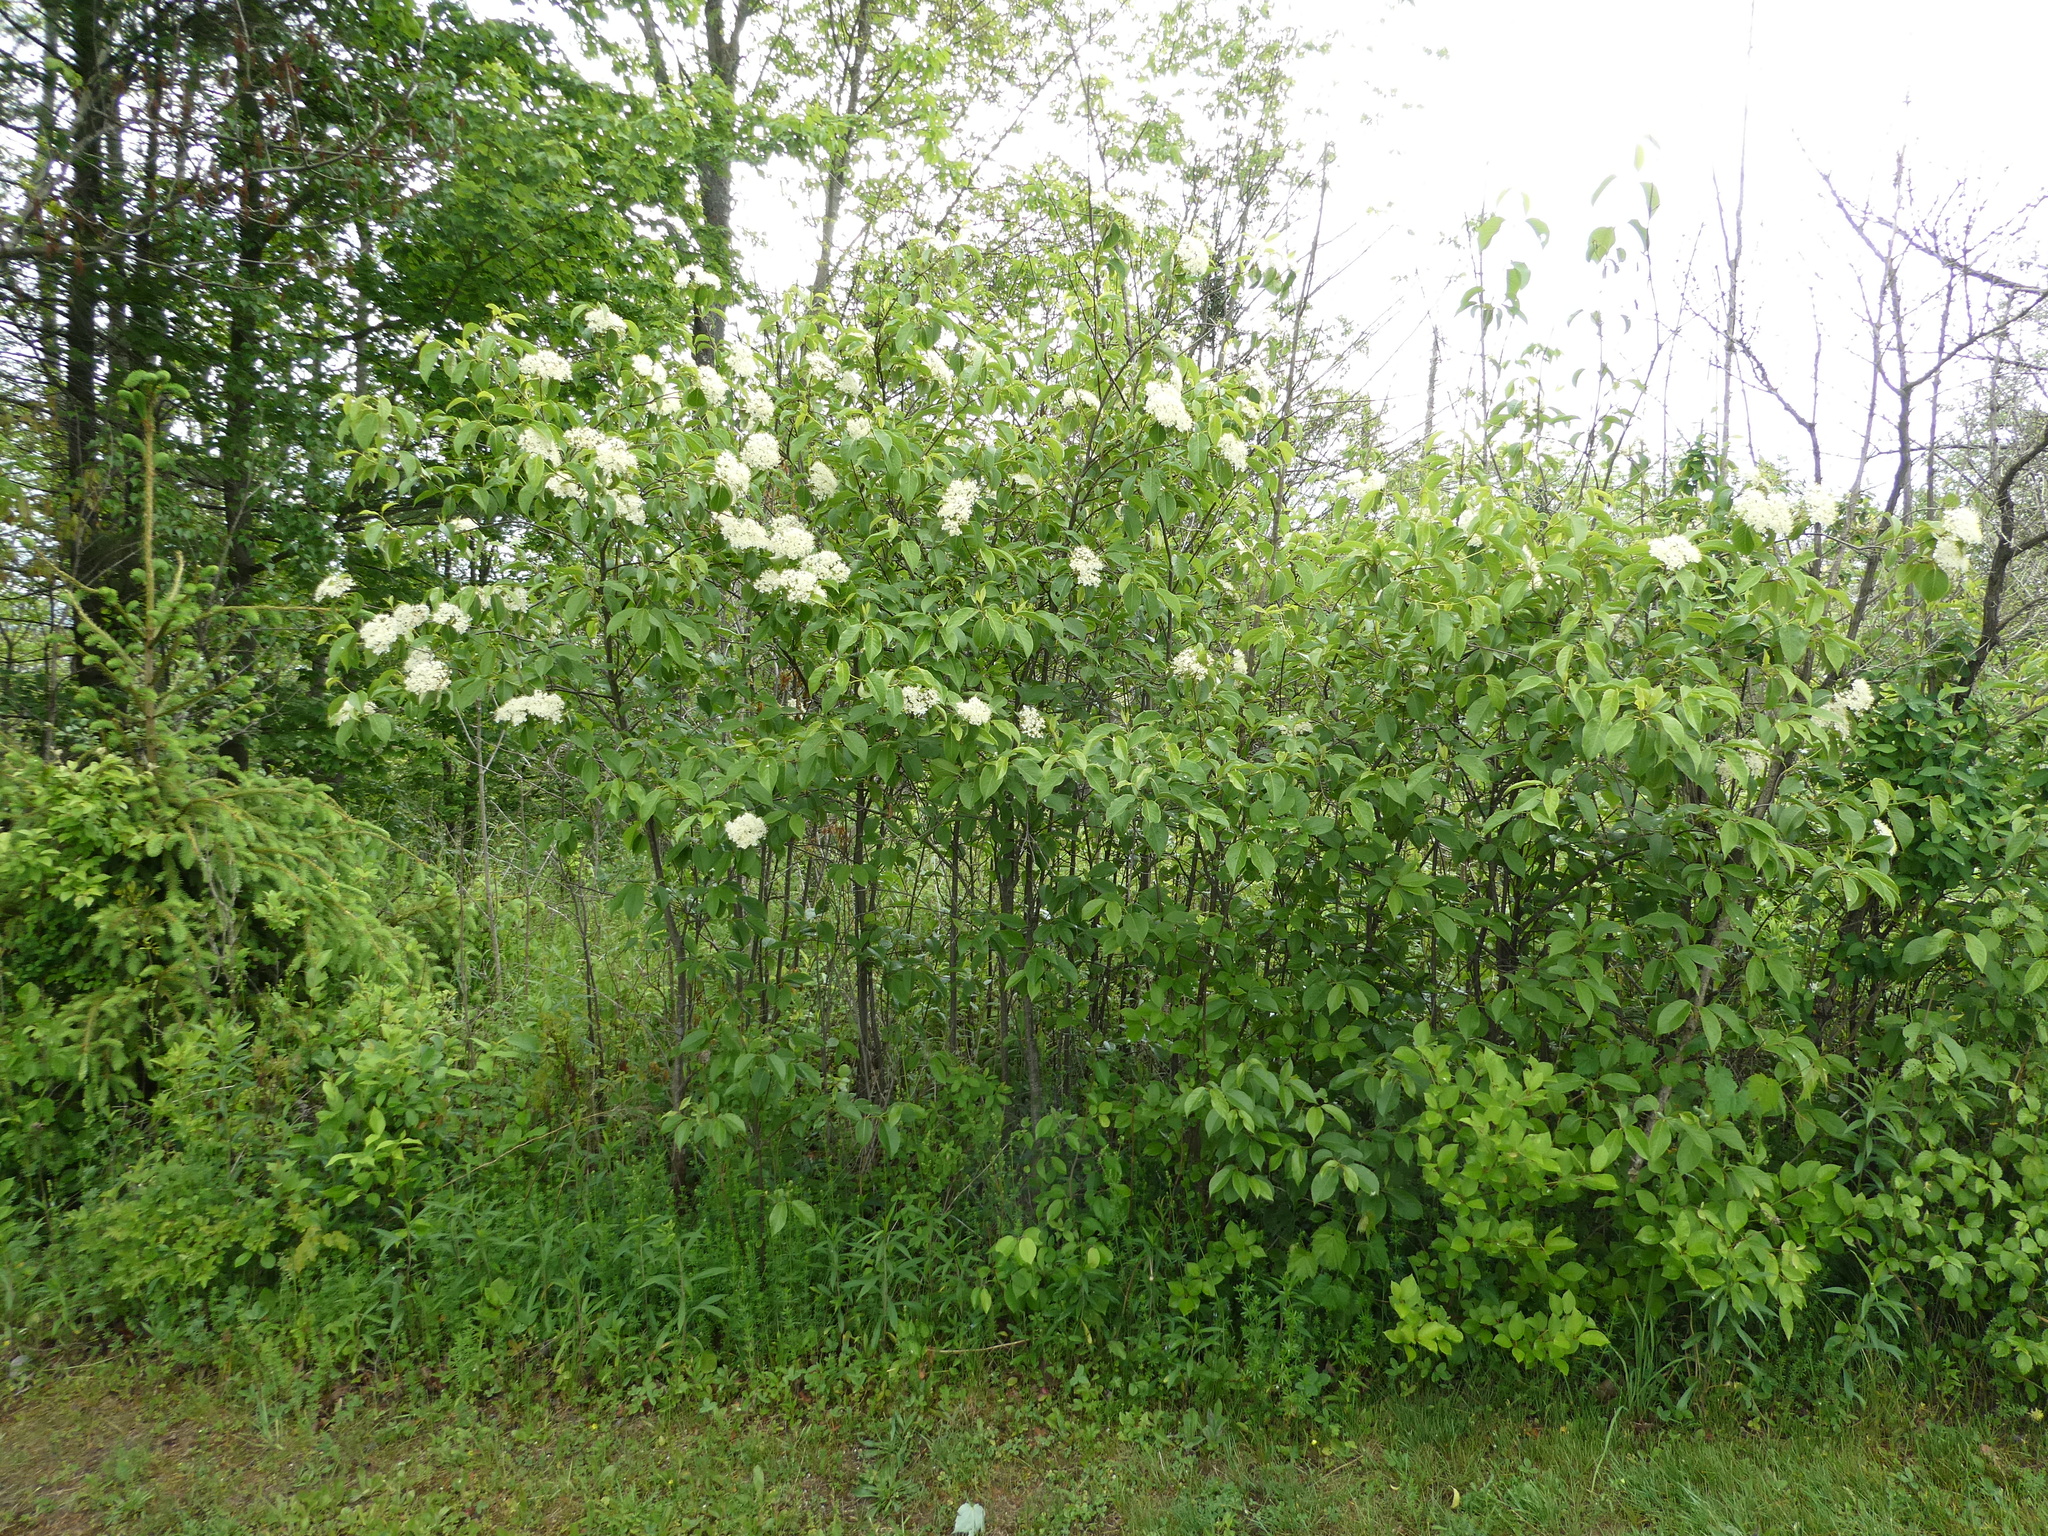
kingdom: Plantae
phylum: Tracheophyta
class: Magnoliopsida
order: Dipsacales
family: Viburnaceae
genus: Viburnum
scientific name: Viburnum lentago
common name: Black haw
